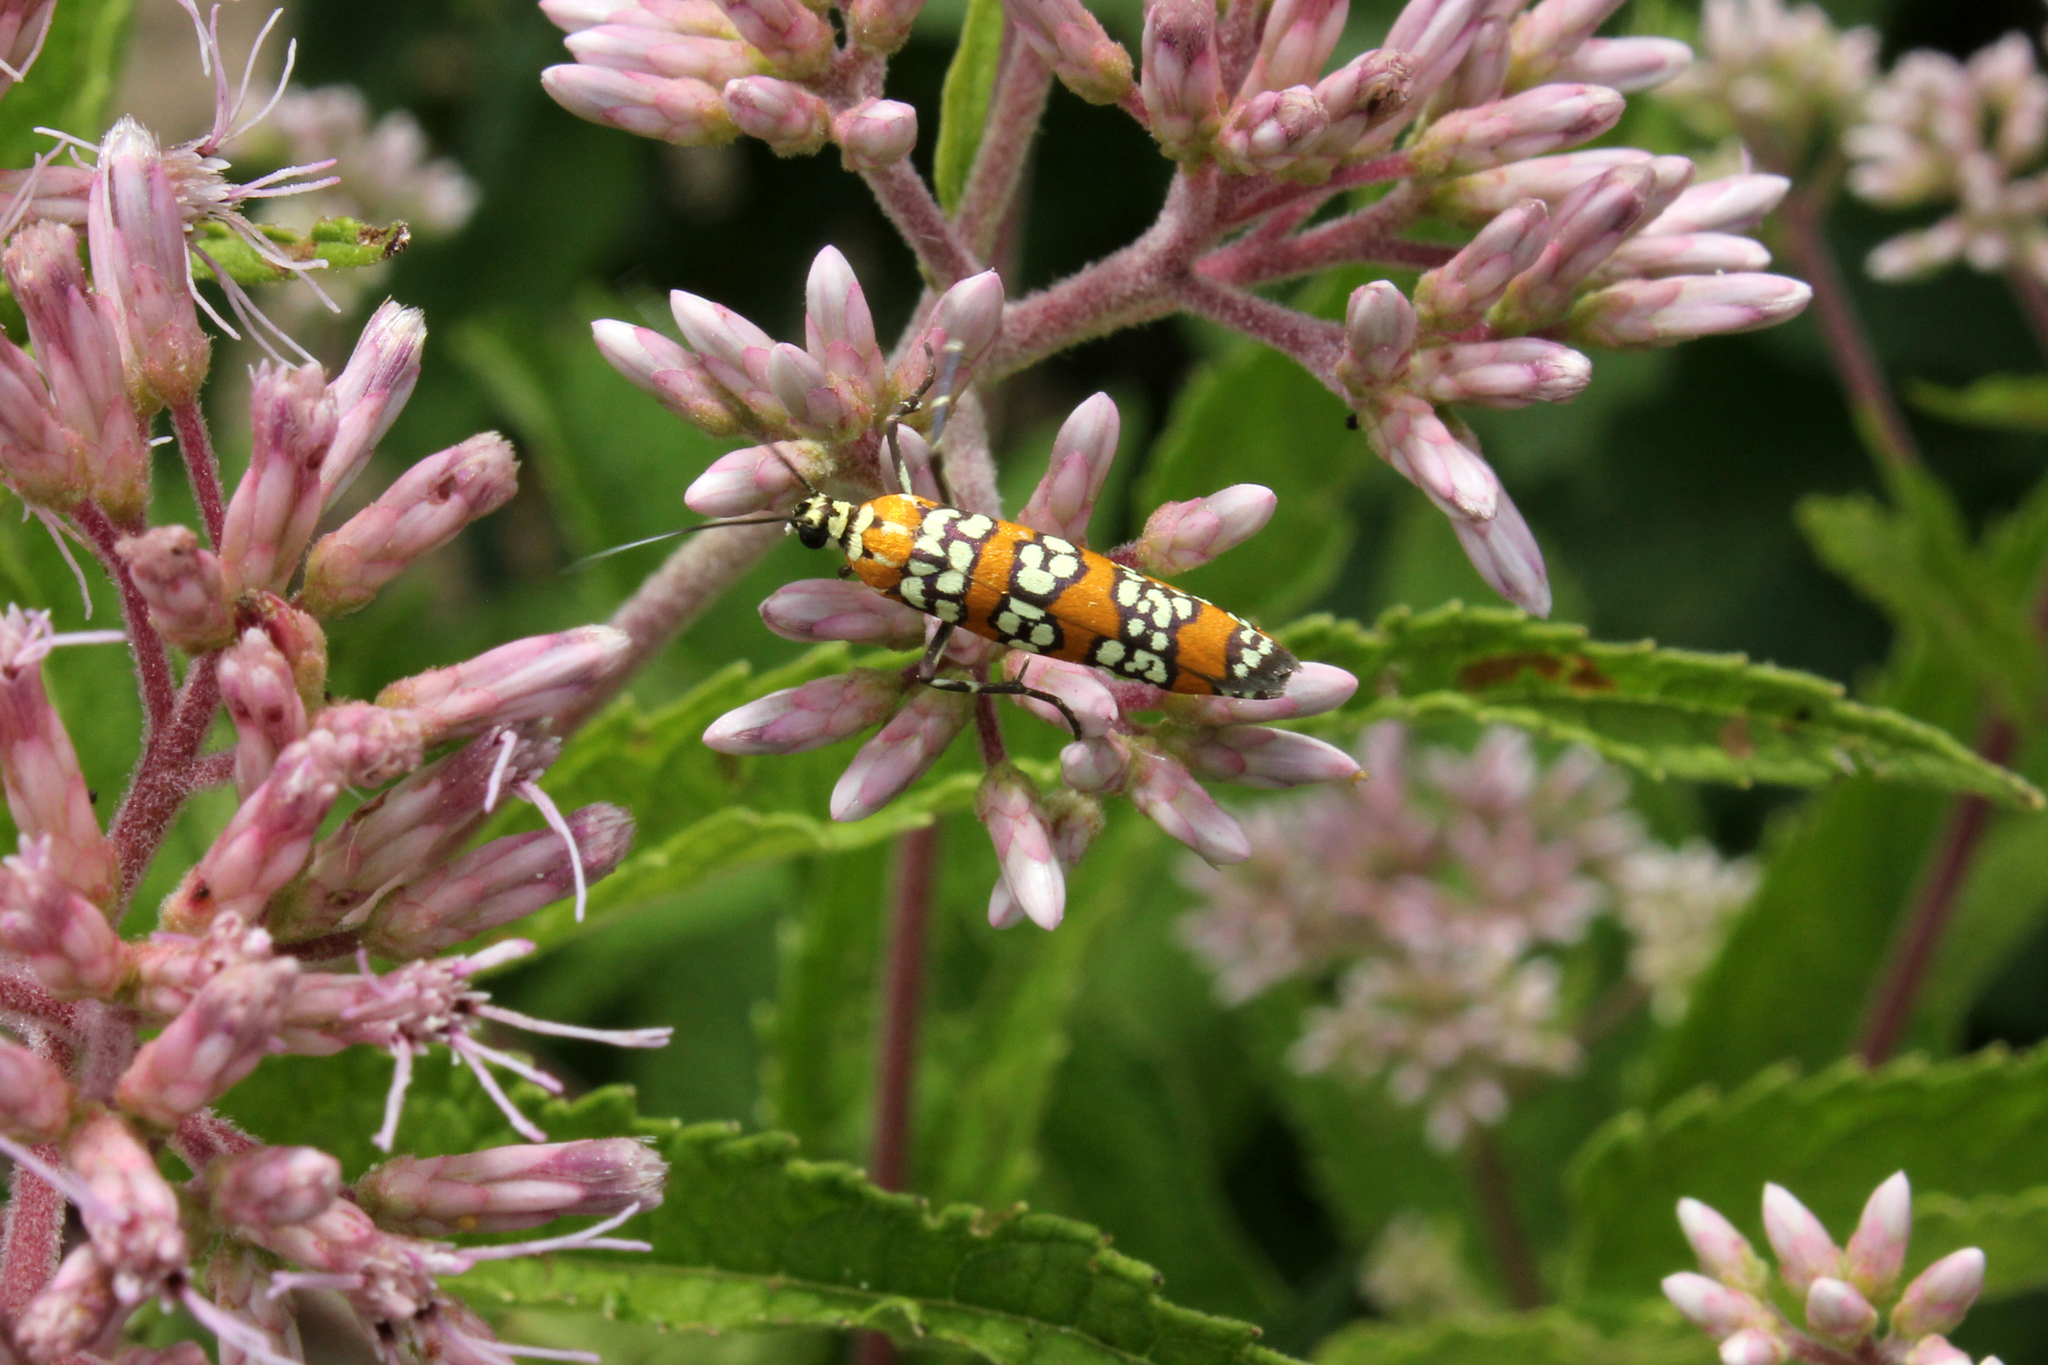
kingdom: Animalia
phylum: Arthropoda
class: Insecta
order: Lepidoptera
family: Attevidae
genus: Atteva
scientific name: Atteva punctella
